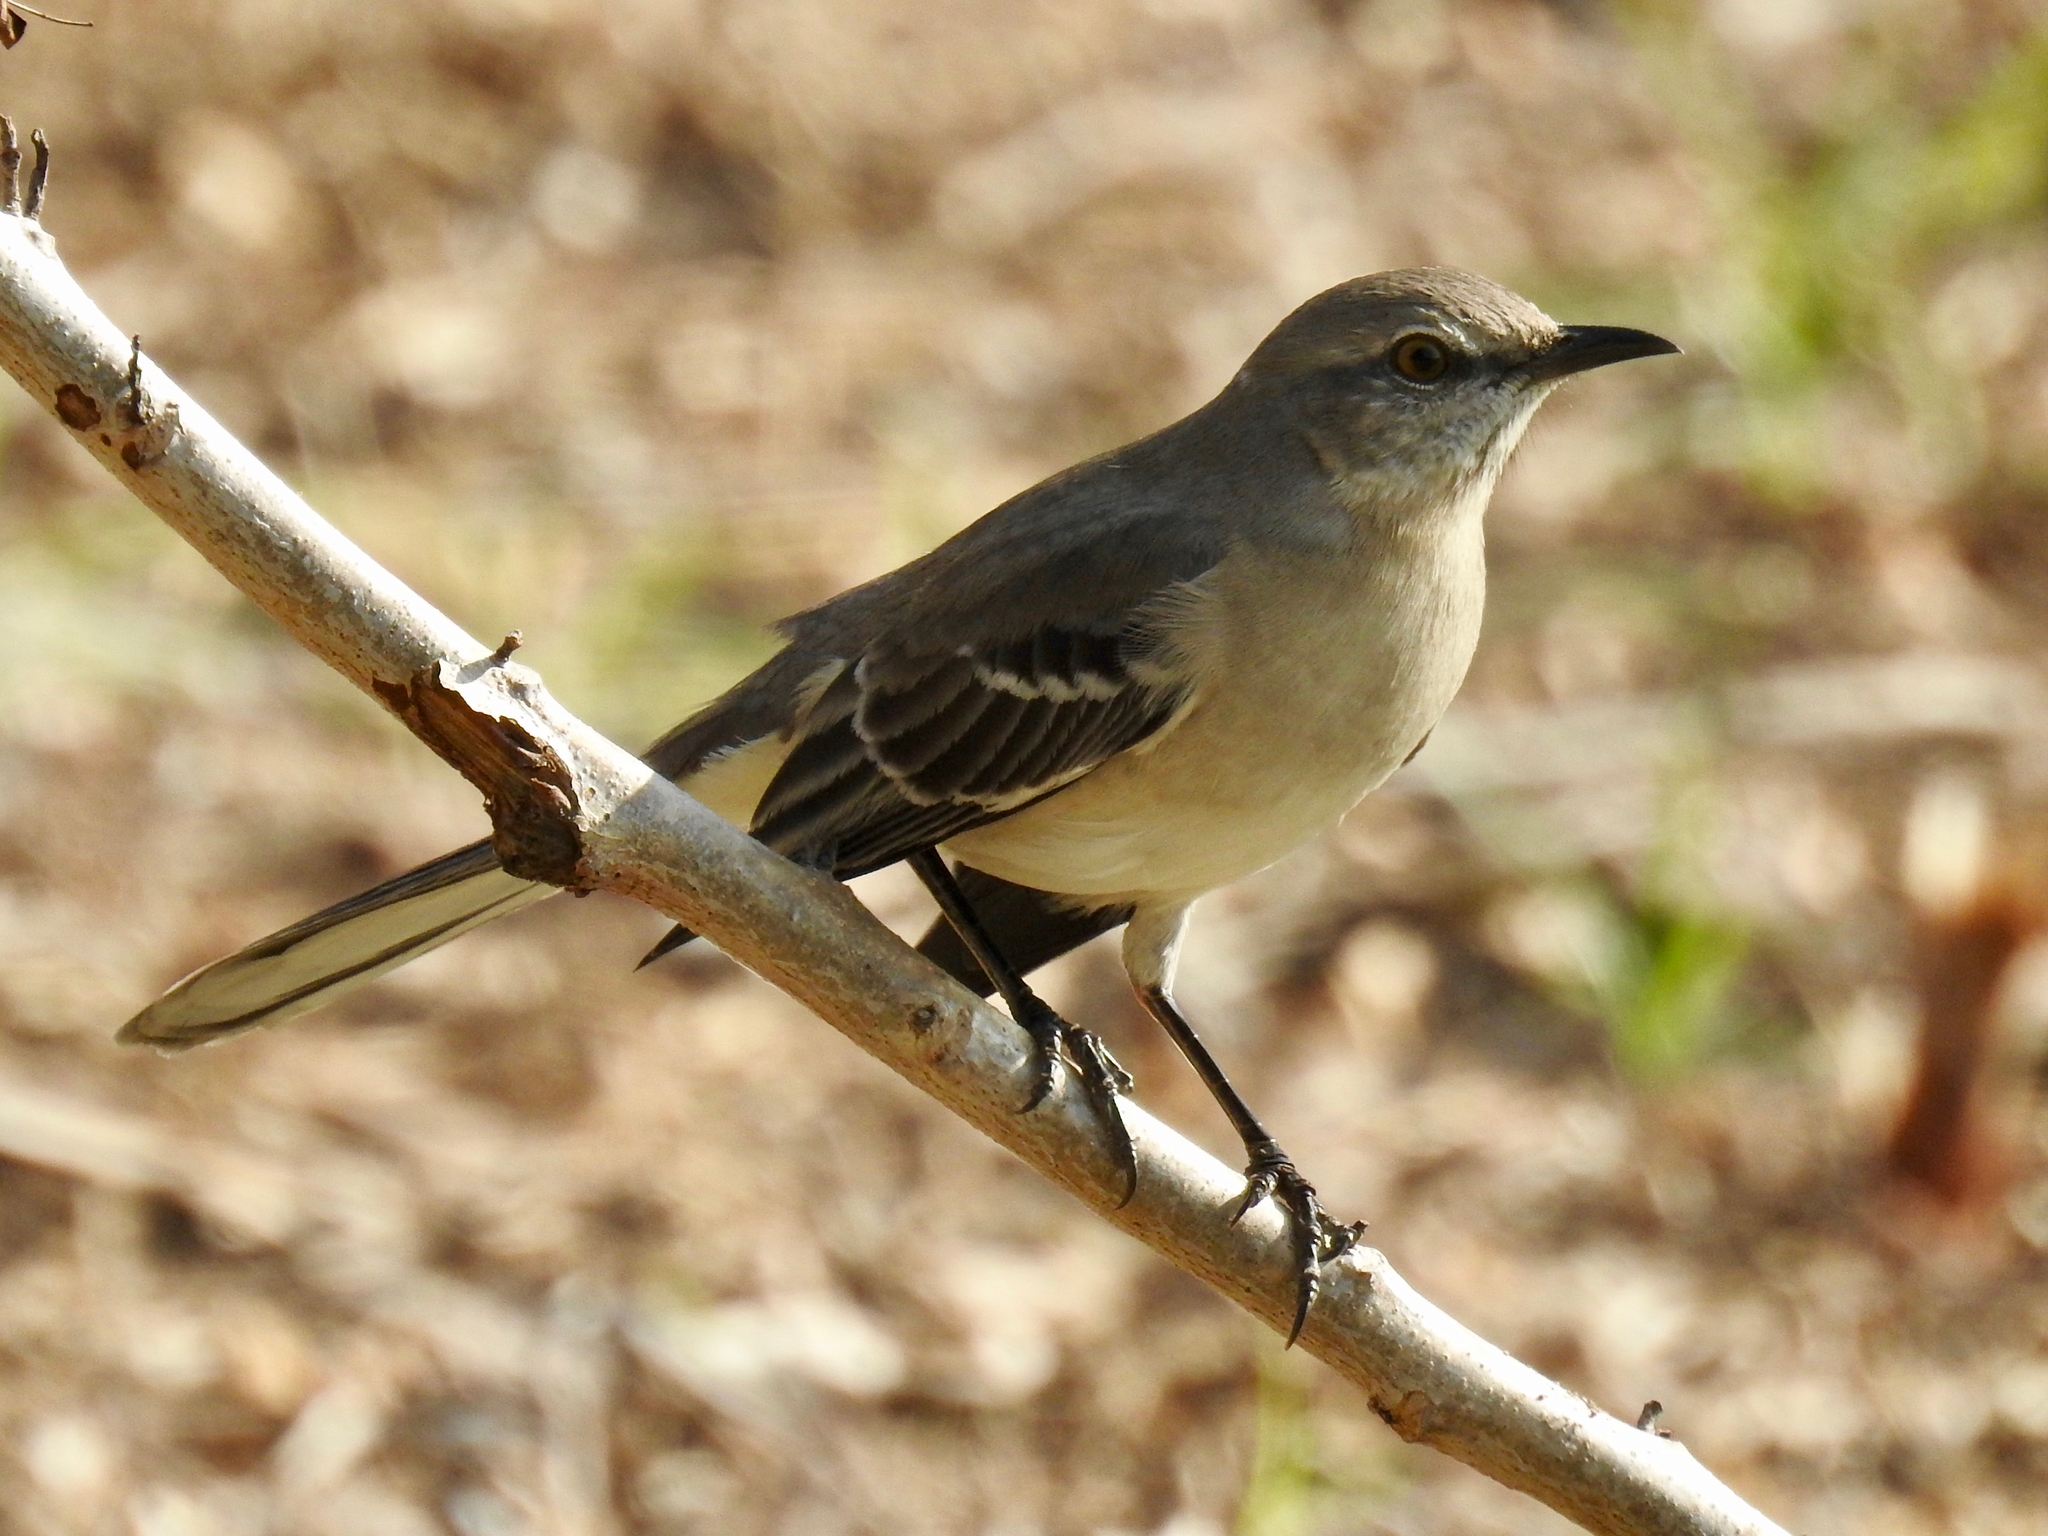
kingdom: Animalia
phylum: Chordata
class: Aves
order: Passeriformes
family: Mimidae
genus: Mimus
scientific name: Mimus polyglottos
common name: Northern mockingbird
